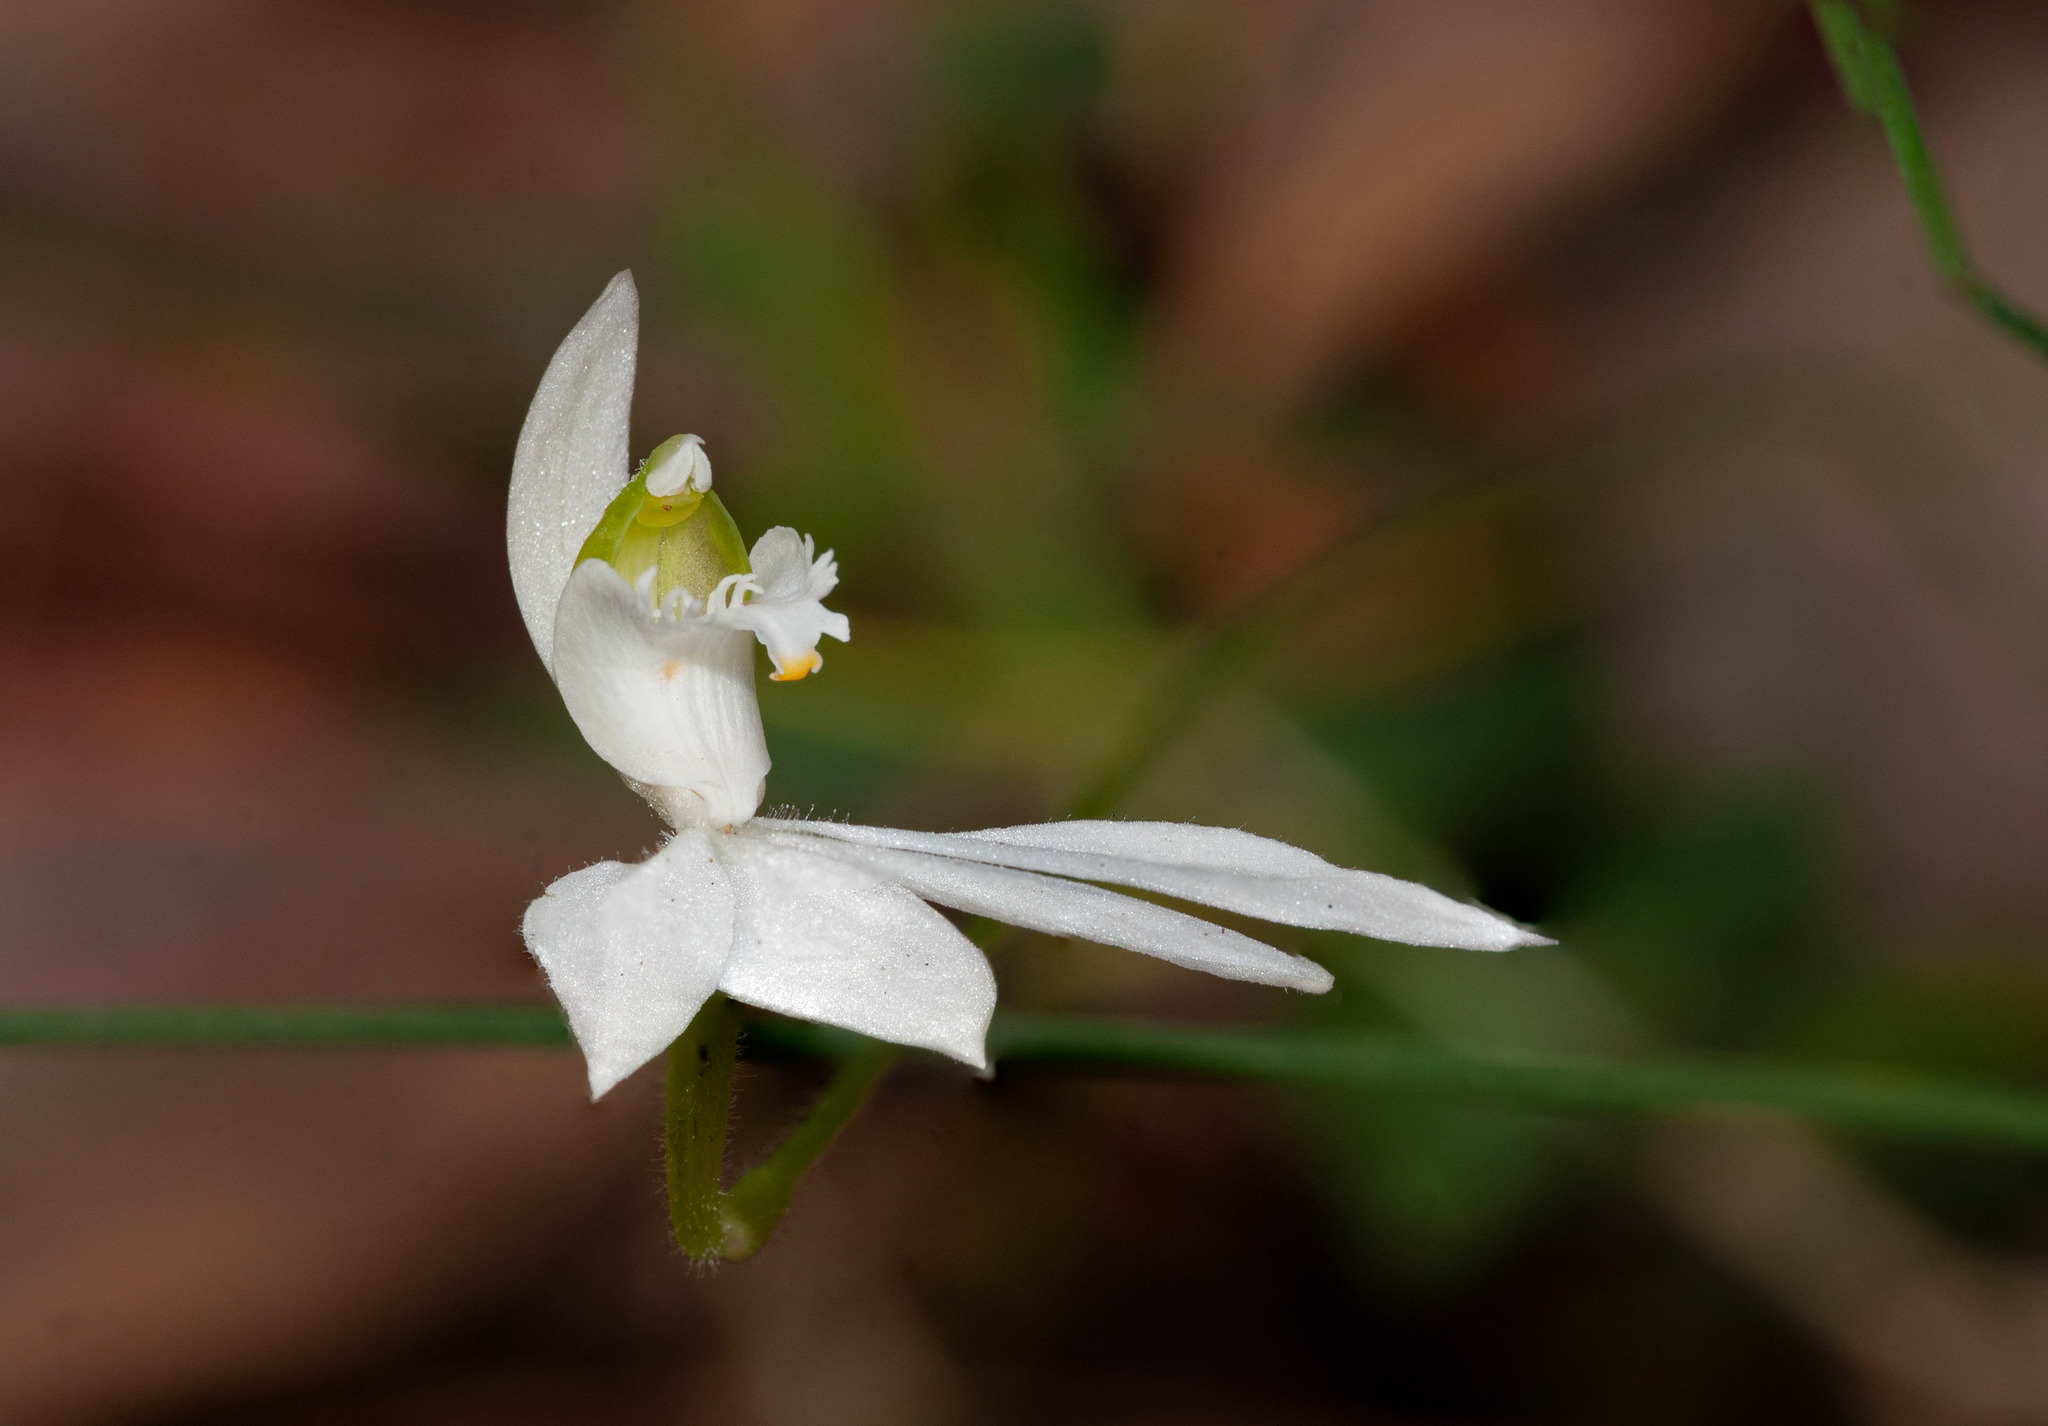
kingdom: Plantae
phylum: Tracheophyta
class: Liliopsida
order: Asparagales
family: Orchidaceae
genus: Caladenia
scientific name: Caladenia catenata
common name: White caladenia
